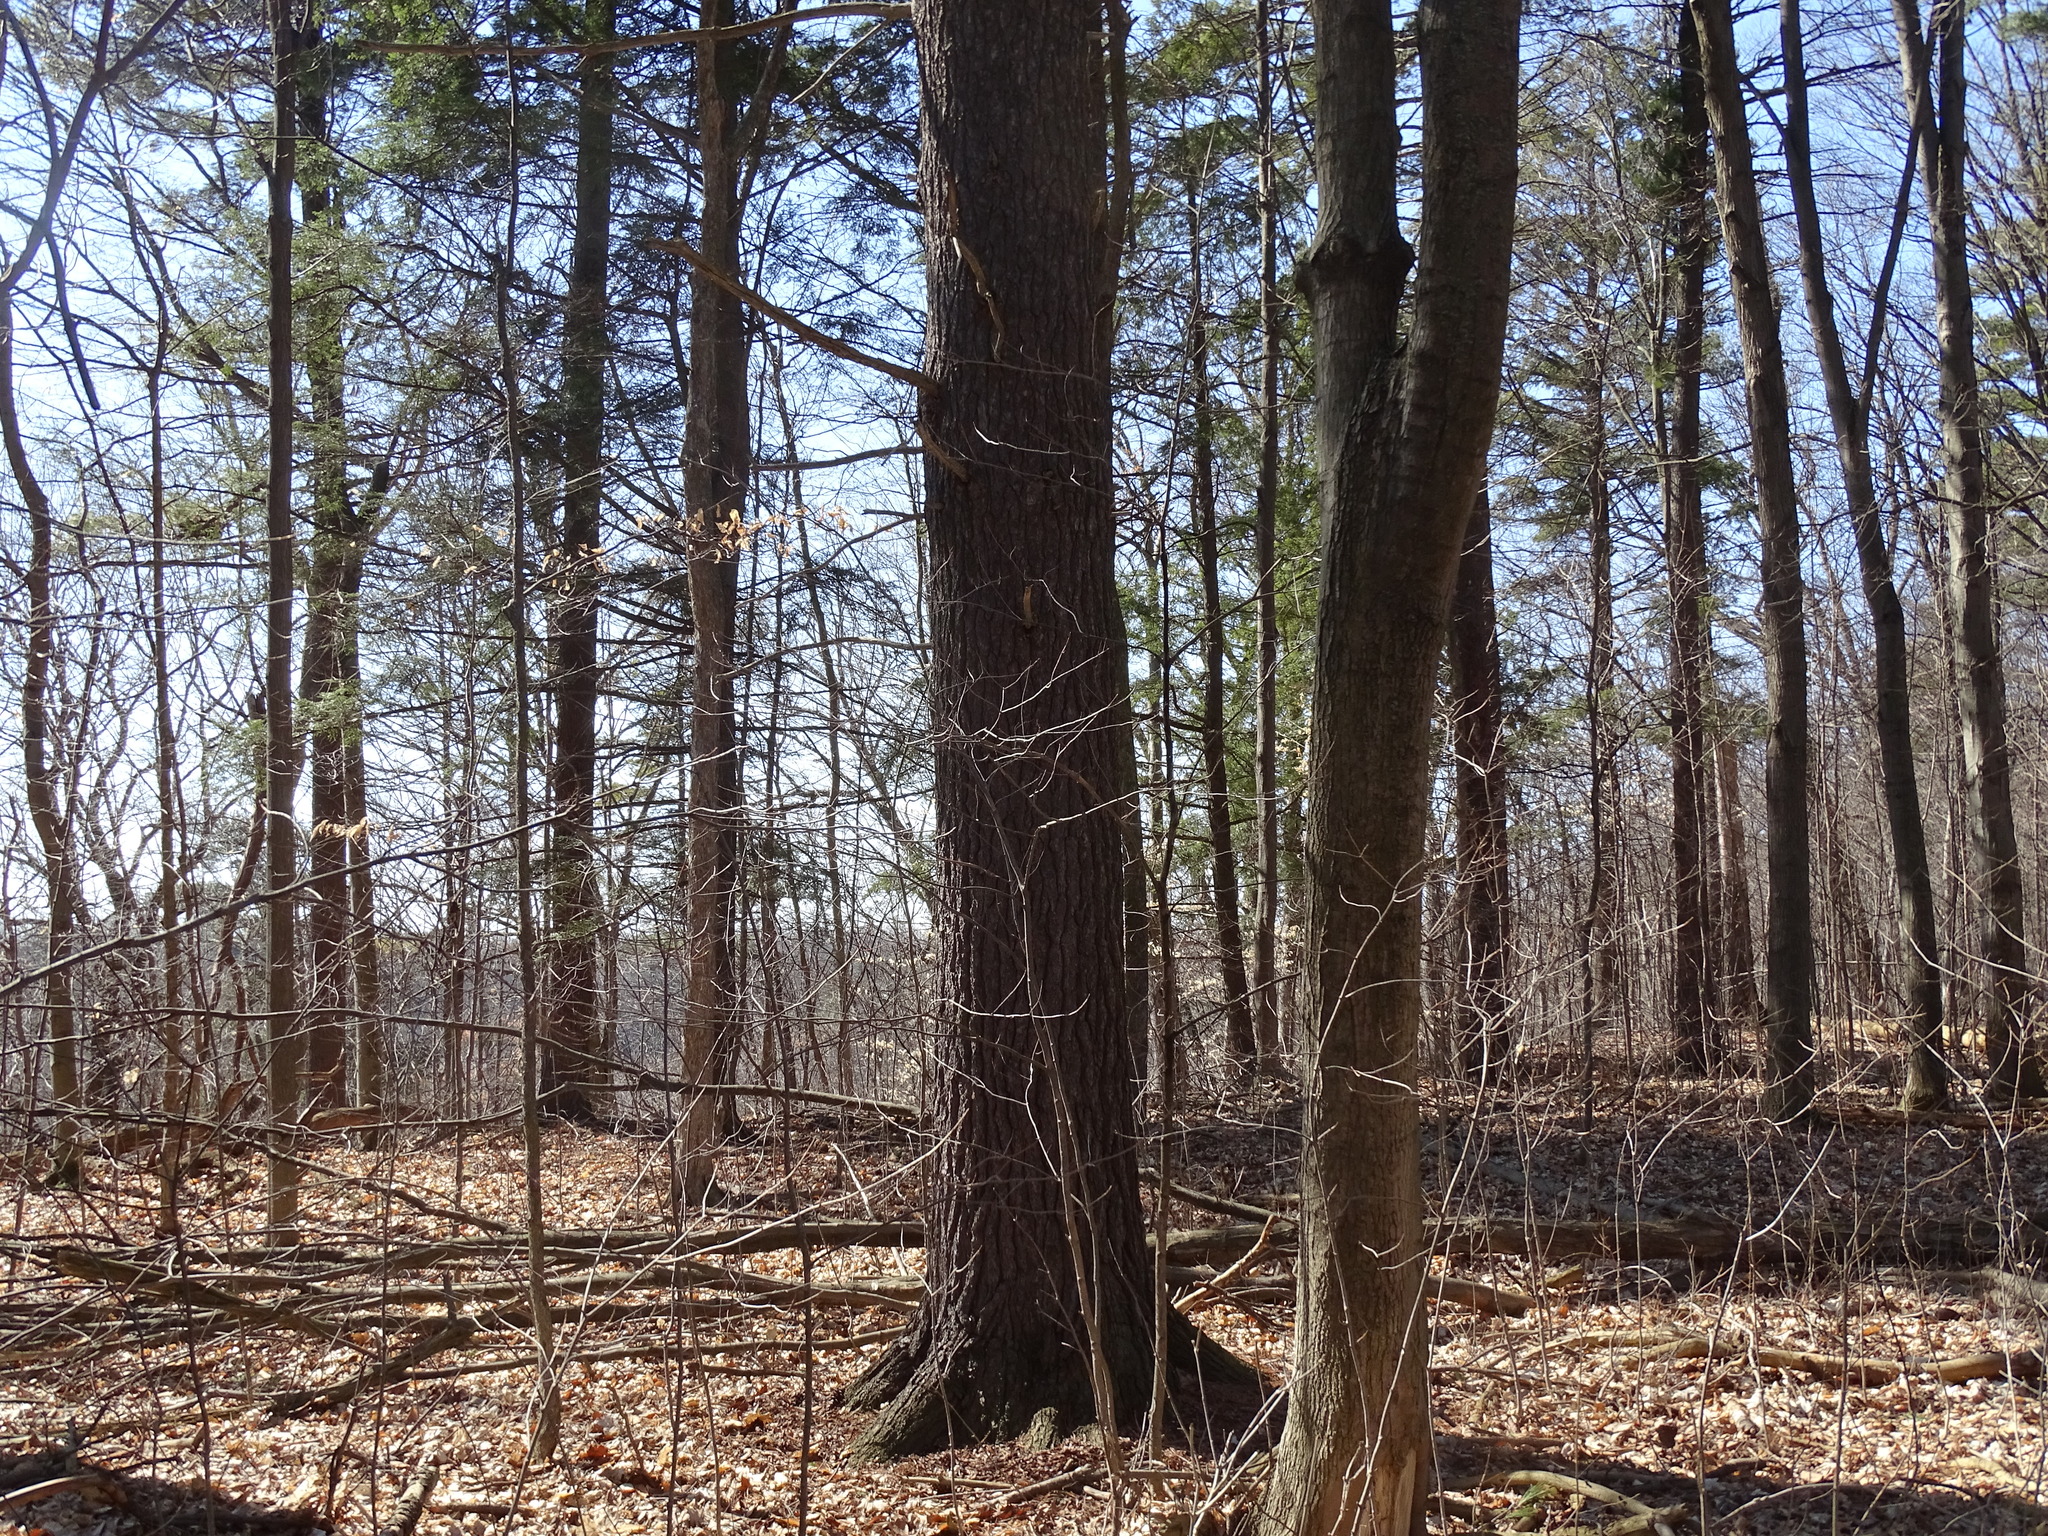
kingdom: Plantae
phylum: Tracheophyta
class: Pinopsida
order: Pinales
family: Pinaceae
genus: Pinus
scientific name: Pinus strobus
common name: Weymouth pine
